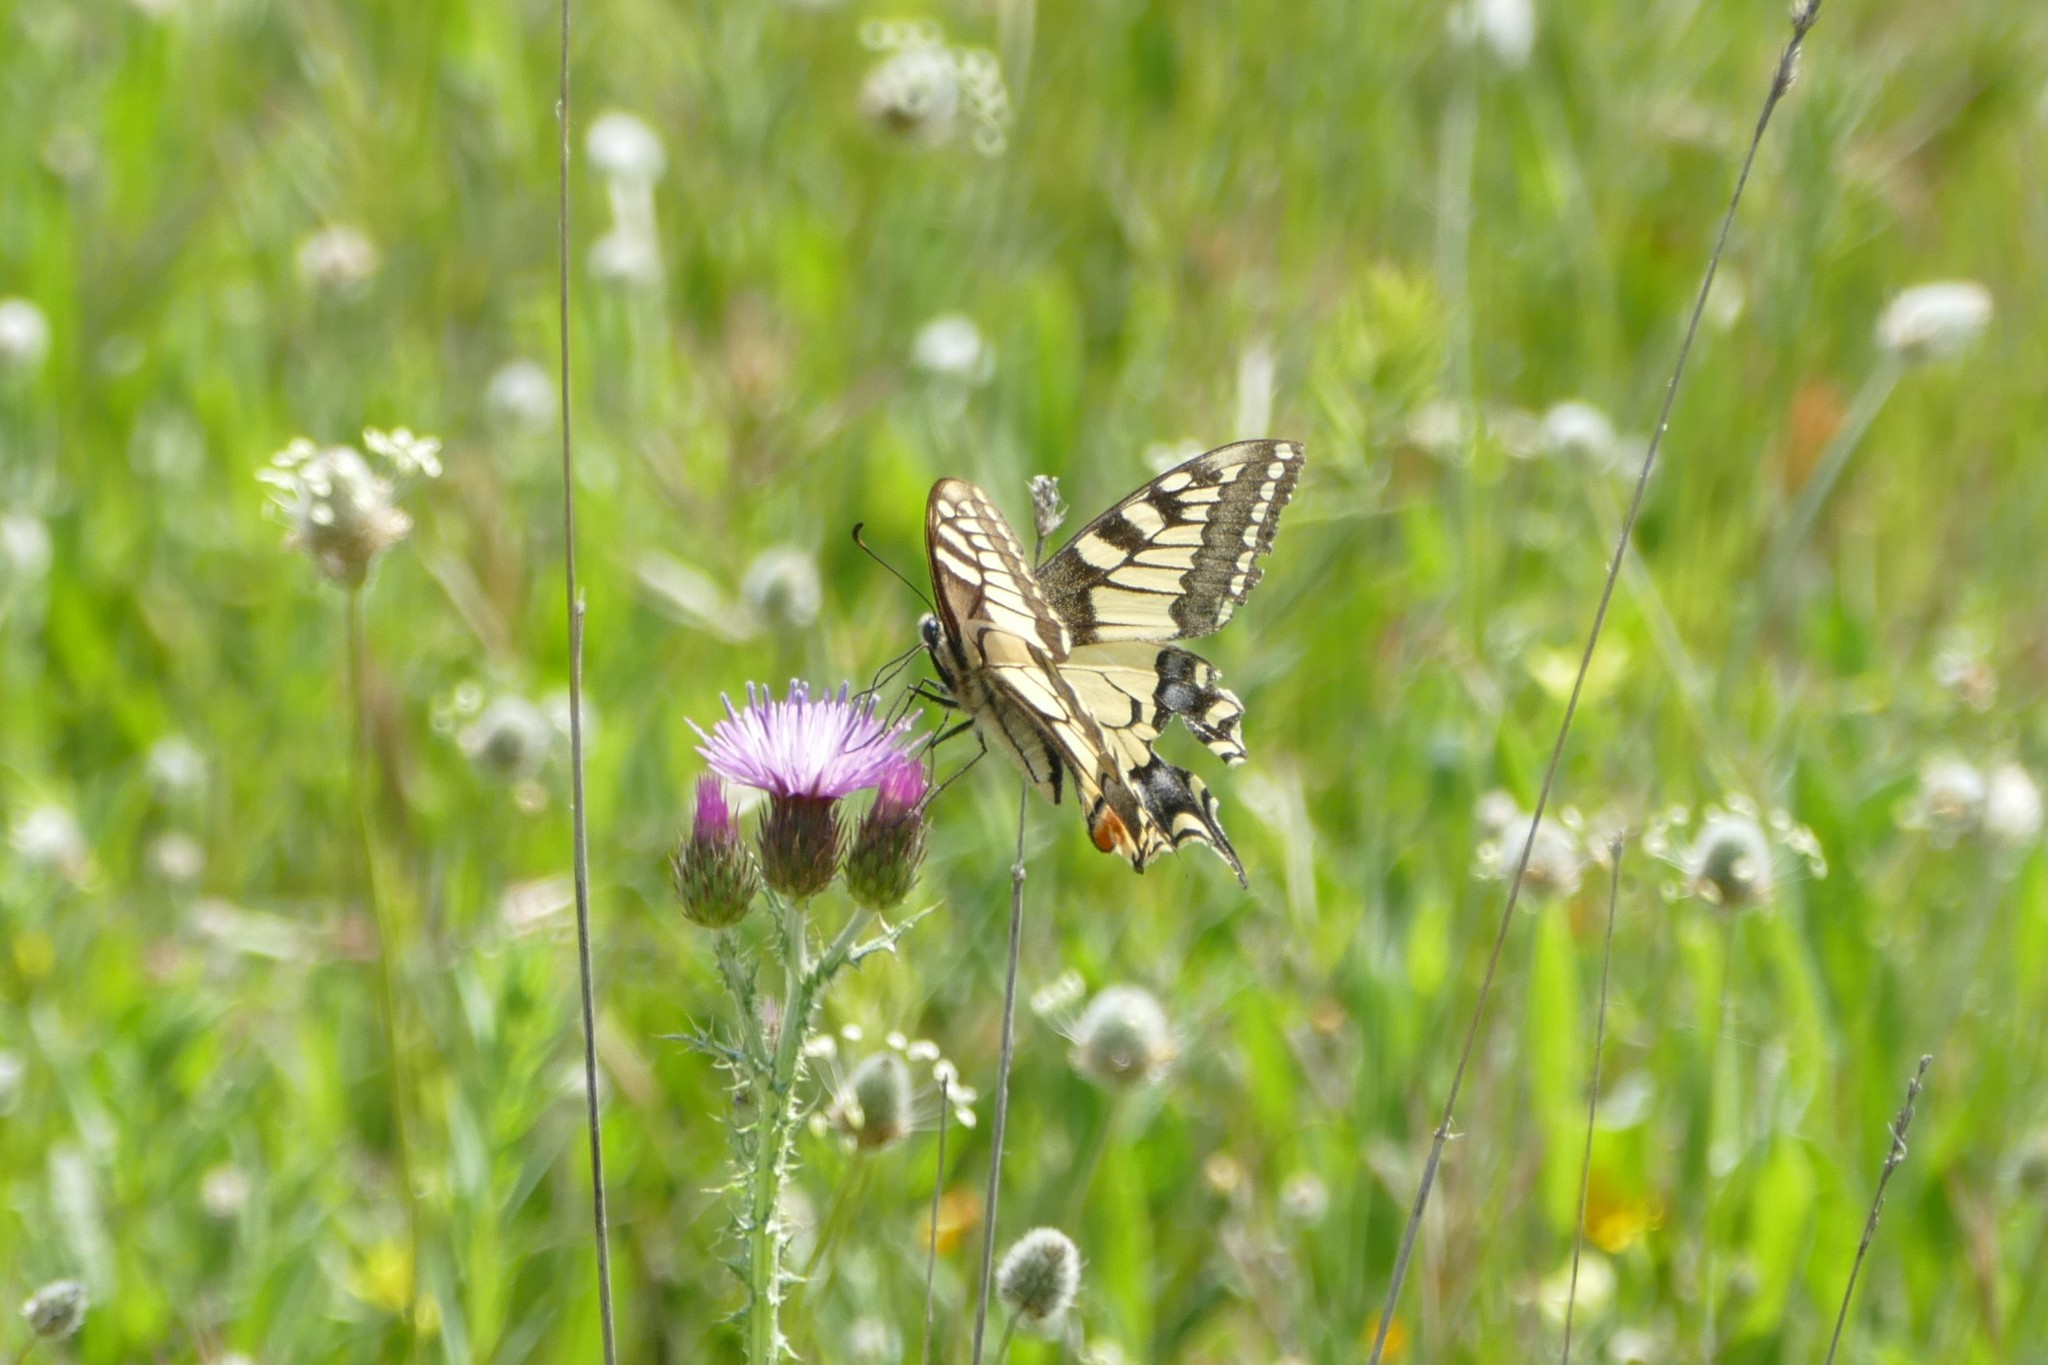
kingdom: Animalia
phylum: Arthropoda
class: Insecta
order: Lepidoptera
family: Papilionidae
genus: Papilio
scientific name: Papilio machaon
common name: Swallowtail
